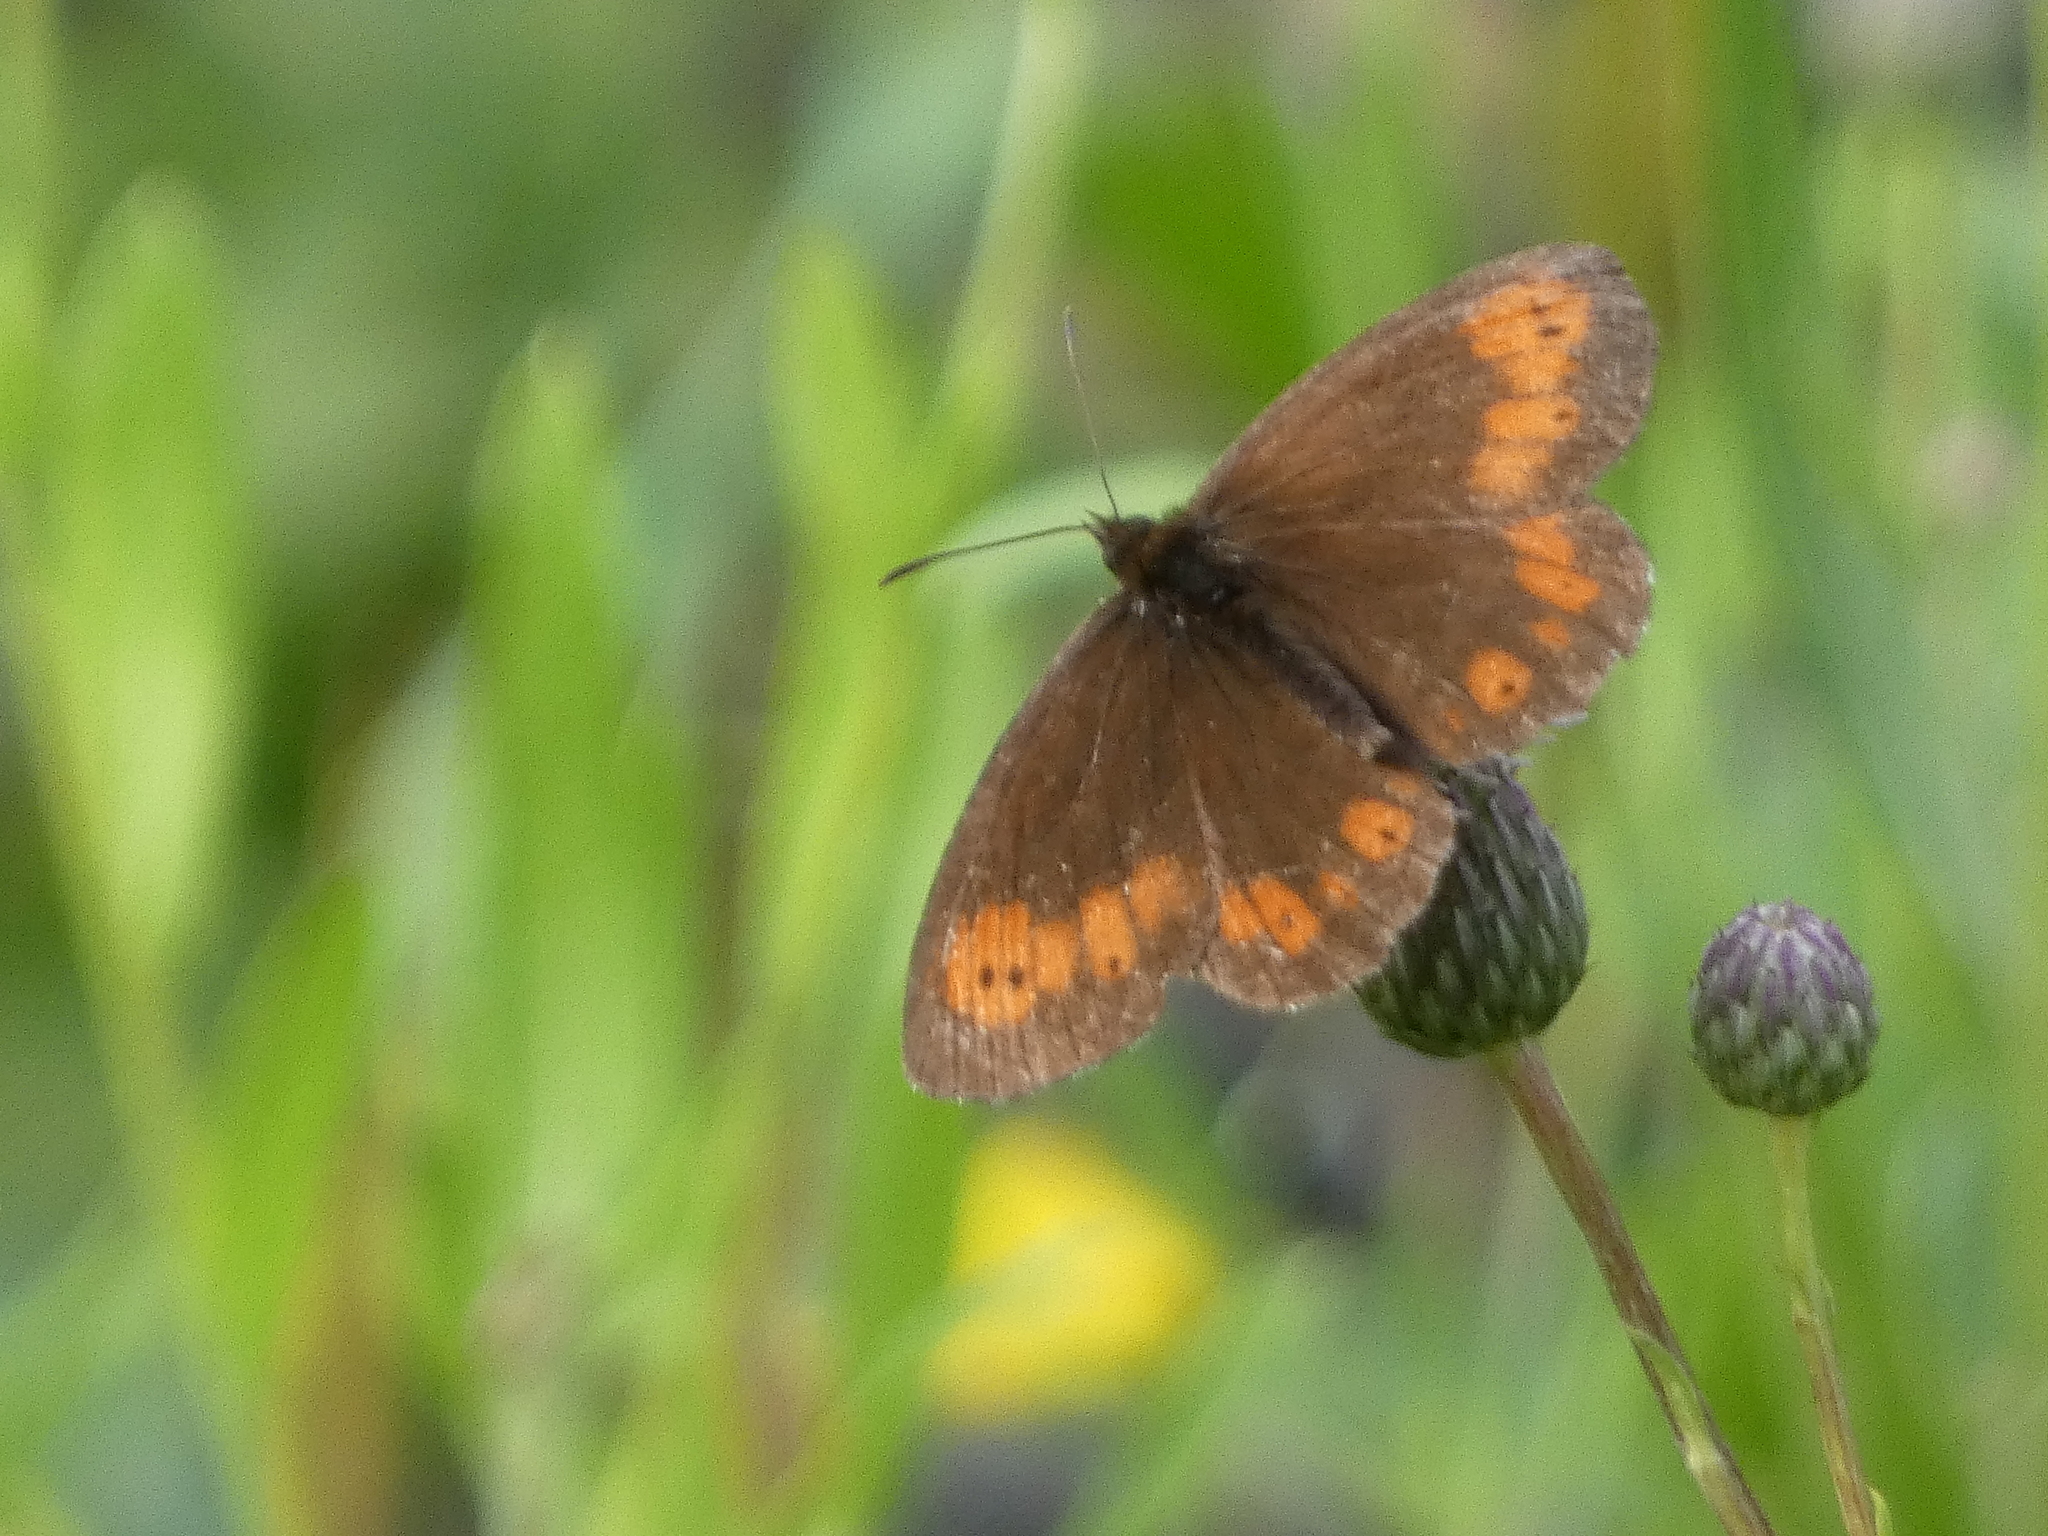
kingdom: Animalia
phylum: Arthropoda
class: Insecta
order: Lepidoptera
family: Nymphalidae
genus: Erebia
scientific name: Erebia euryale
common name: Large ringlet
